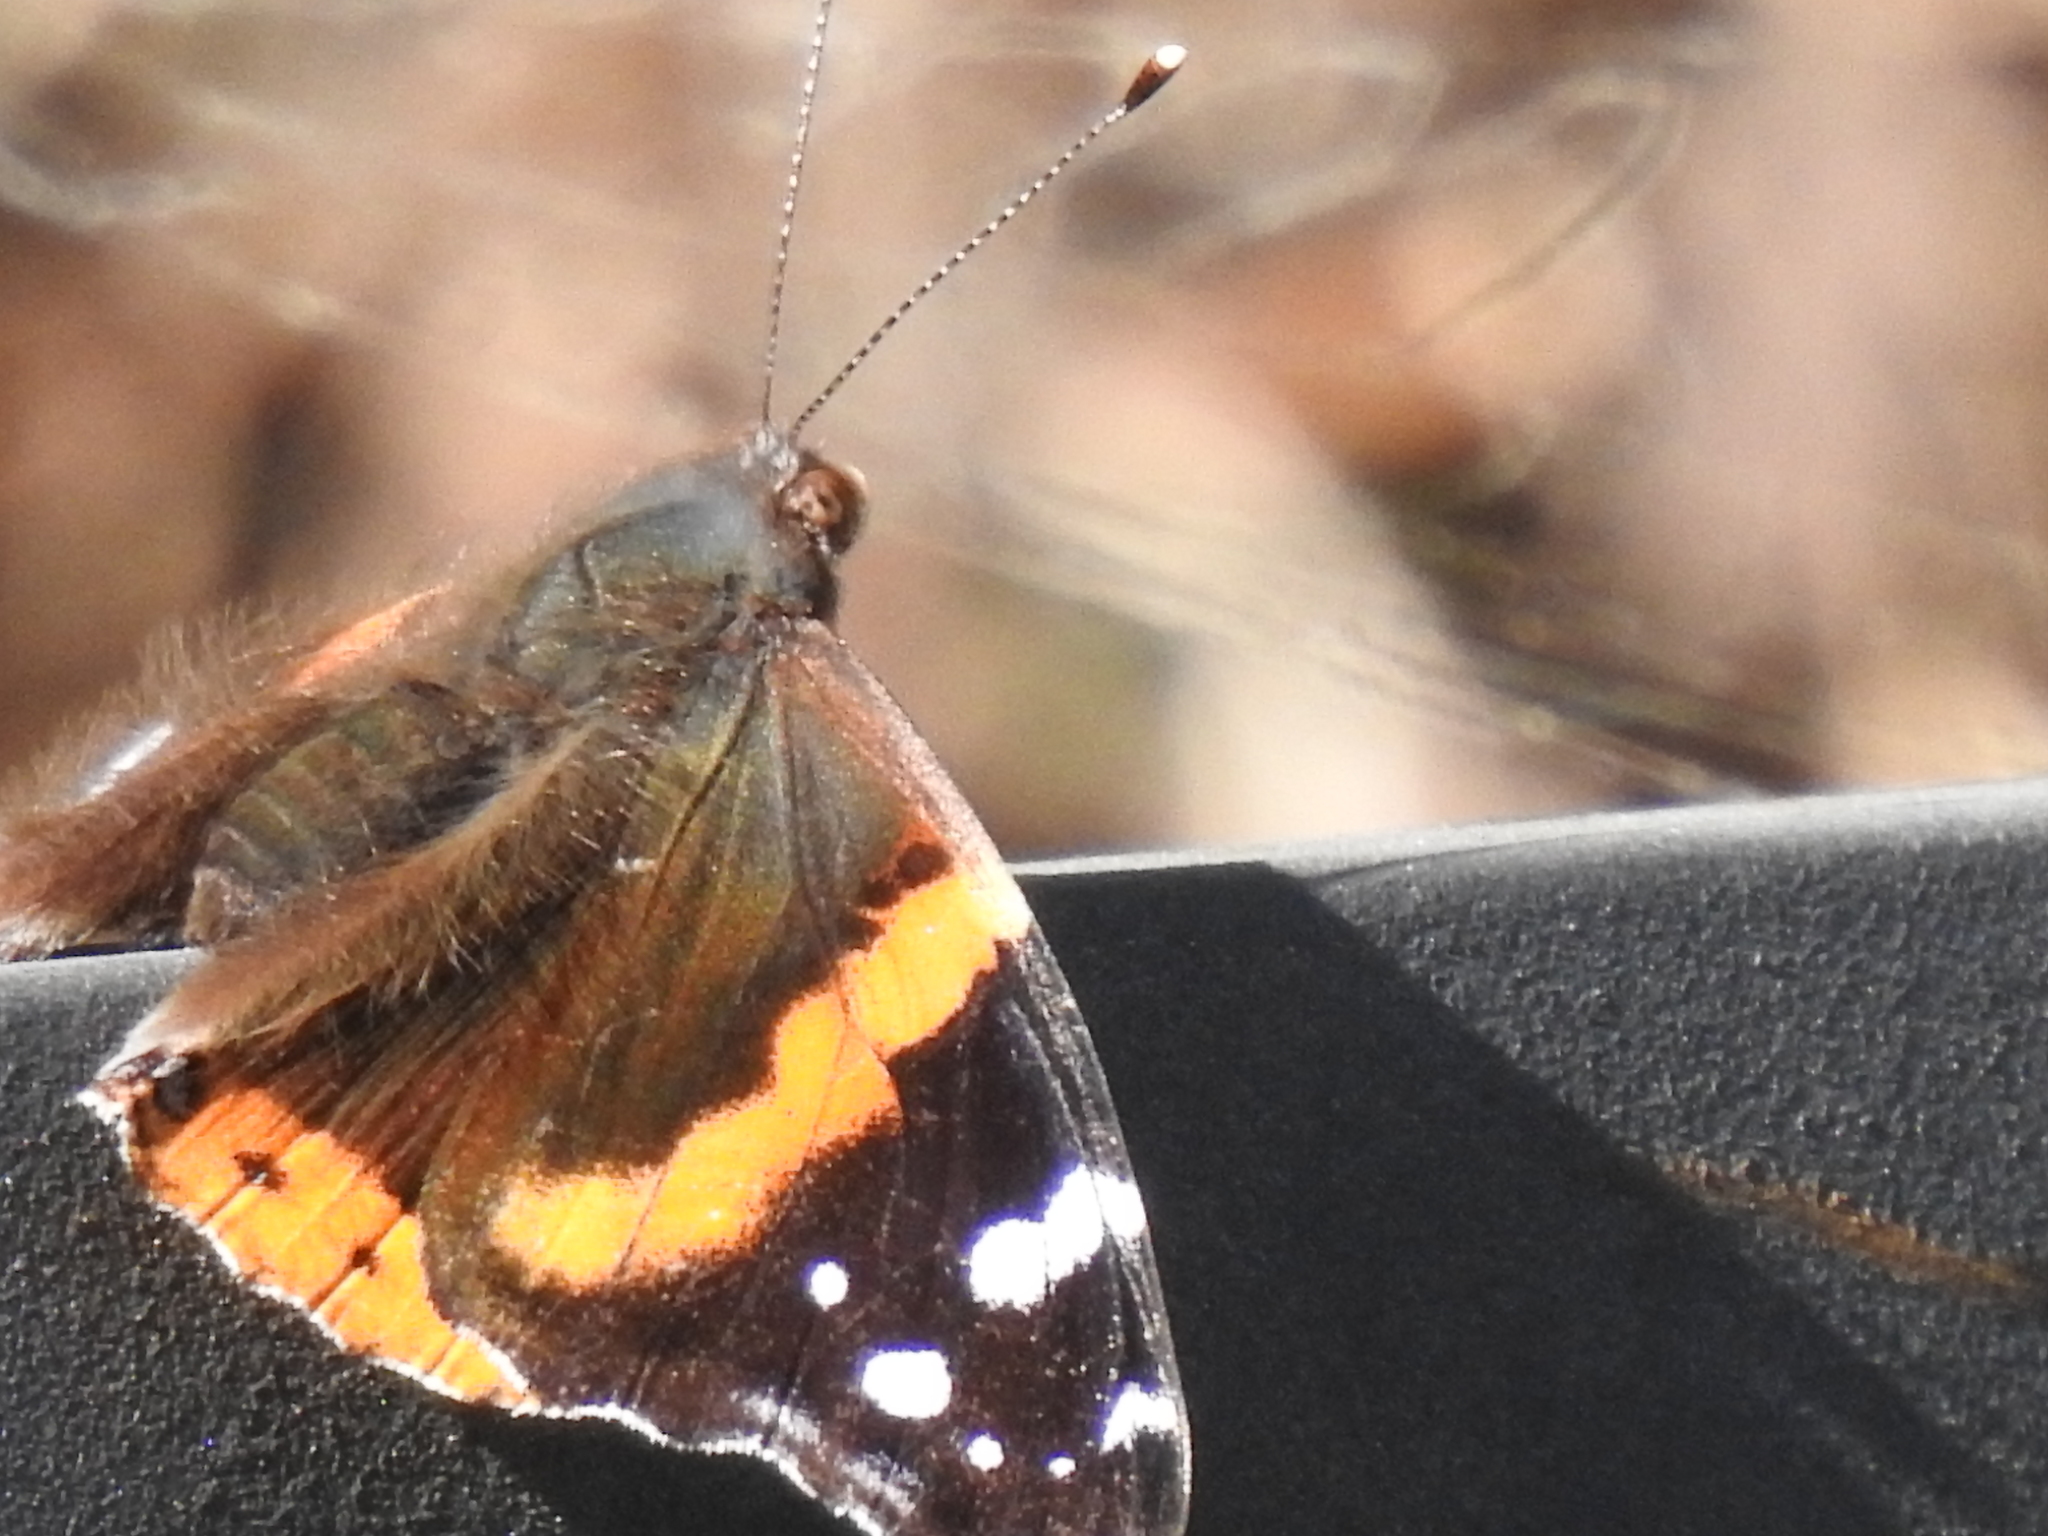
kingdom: Animalia
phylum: Arthropoda
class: Insecta
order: Lepidoptera
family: Nymphalidae
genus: Vanessa
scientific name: Vanessa atalanta
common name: Red admiral
